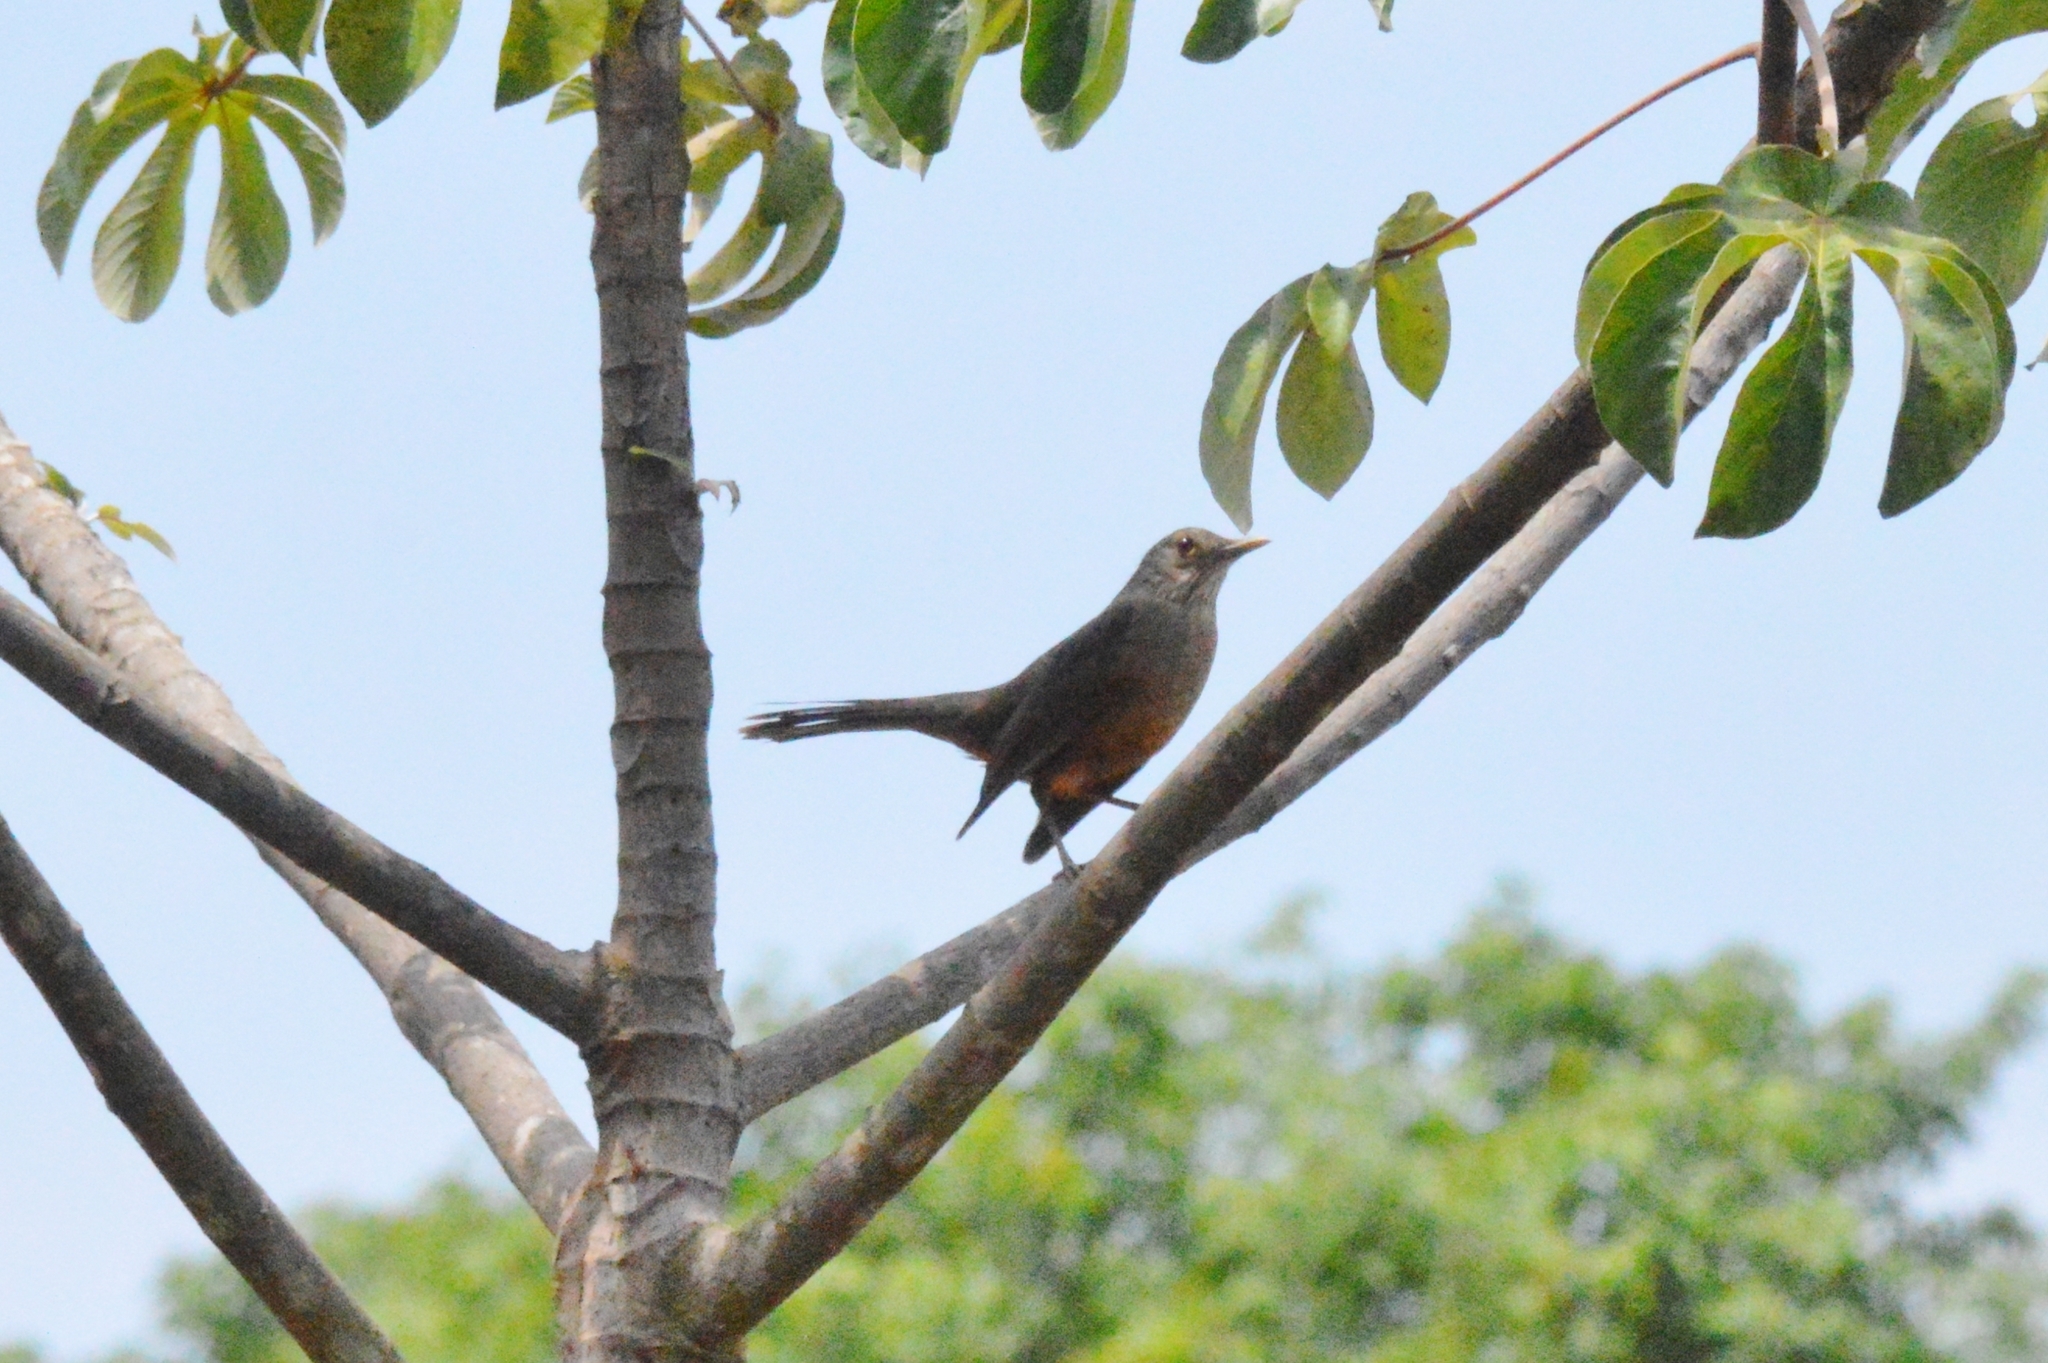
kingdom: Animalia
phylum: Chordata
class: Aves
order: Passeriformes
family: Turdidae
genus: Turdus
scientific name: Turdus rufiventris
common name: Rufous-bellied thrush
